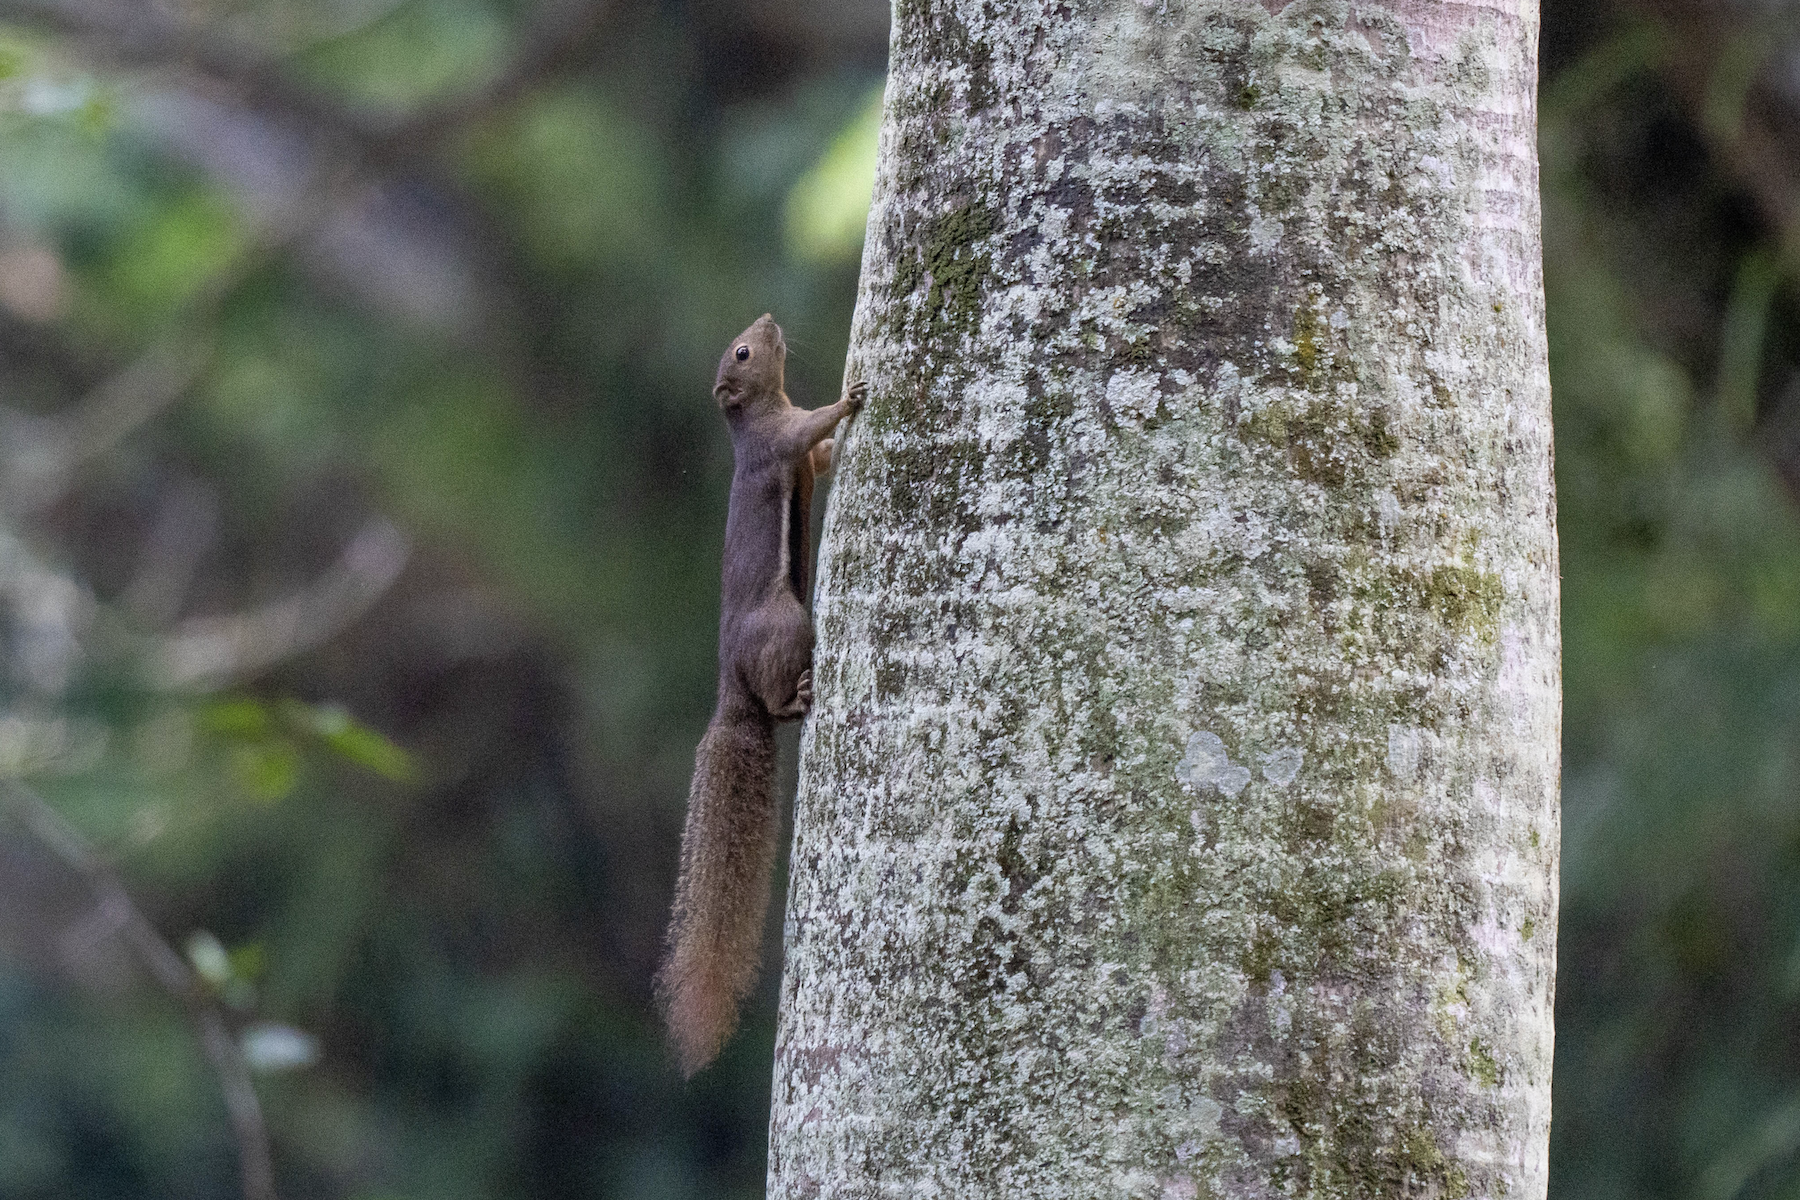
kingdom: Animalia
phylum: Chordata
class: Mammalia
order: Rodentia
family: Sciuridae
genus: Callosciurus
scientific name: Callosciurus notatus
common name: Plantain squirrel
